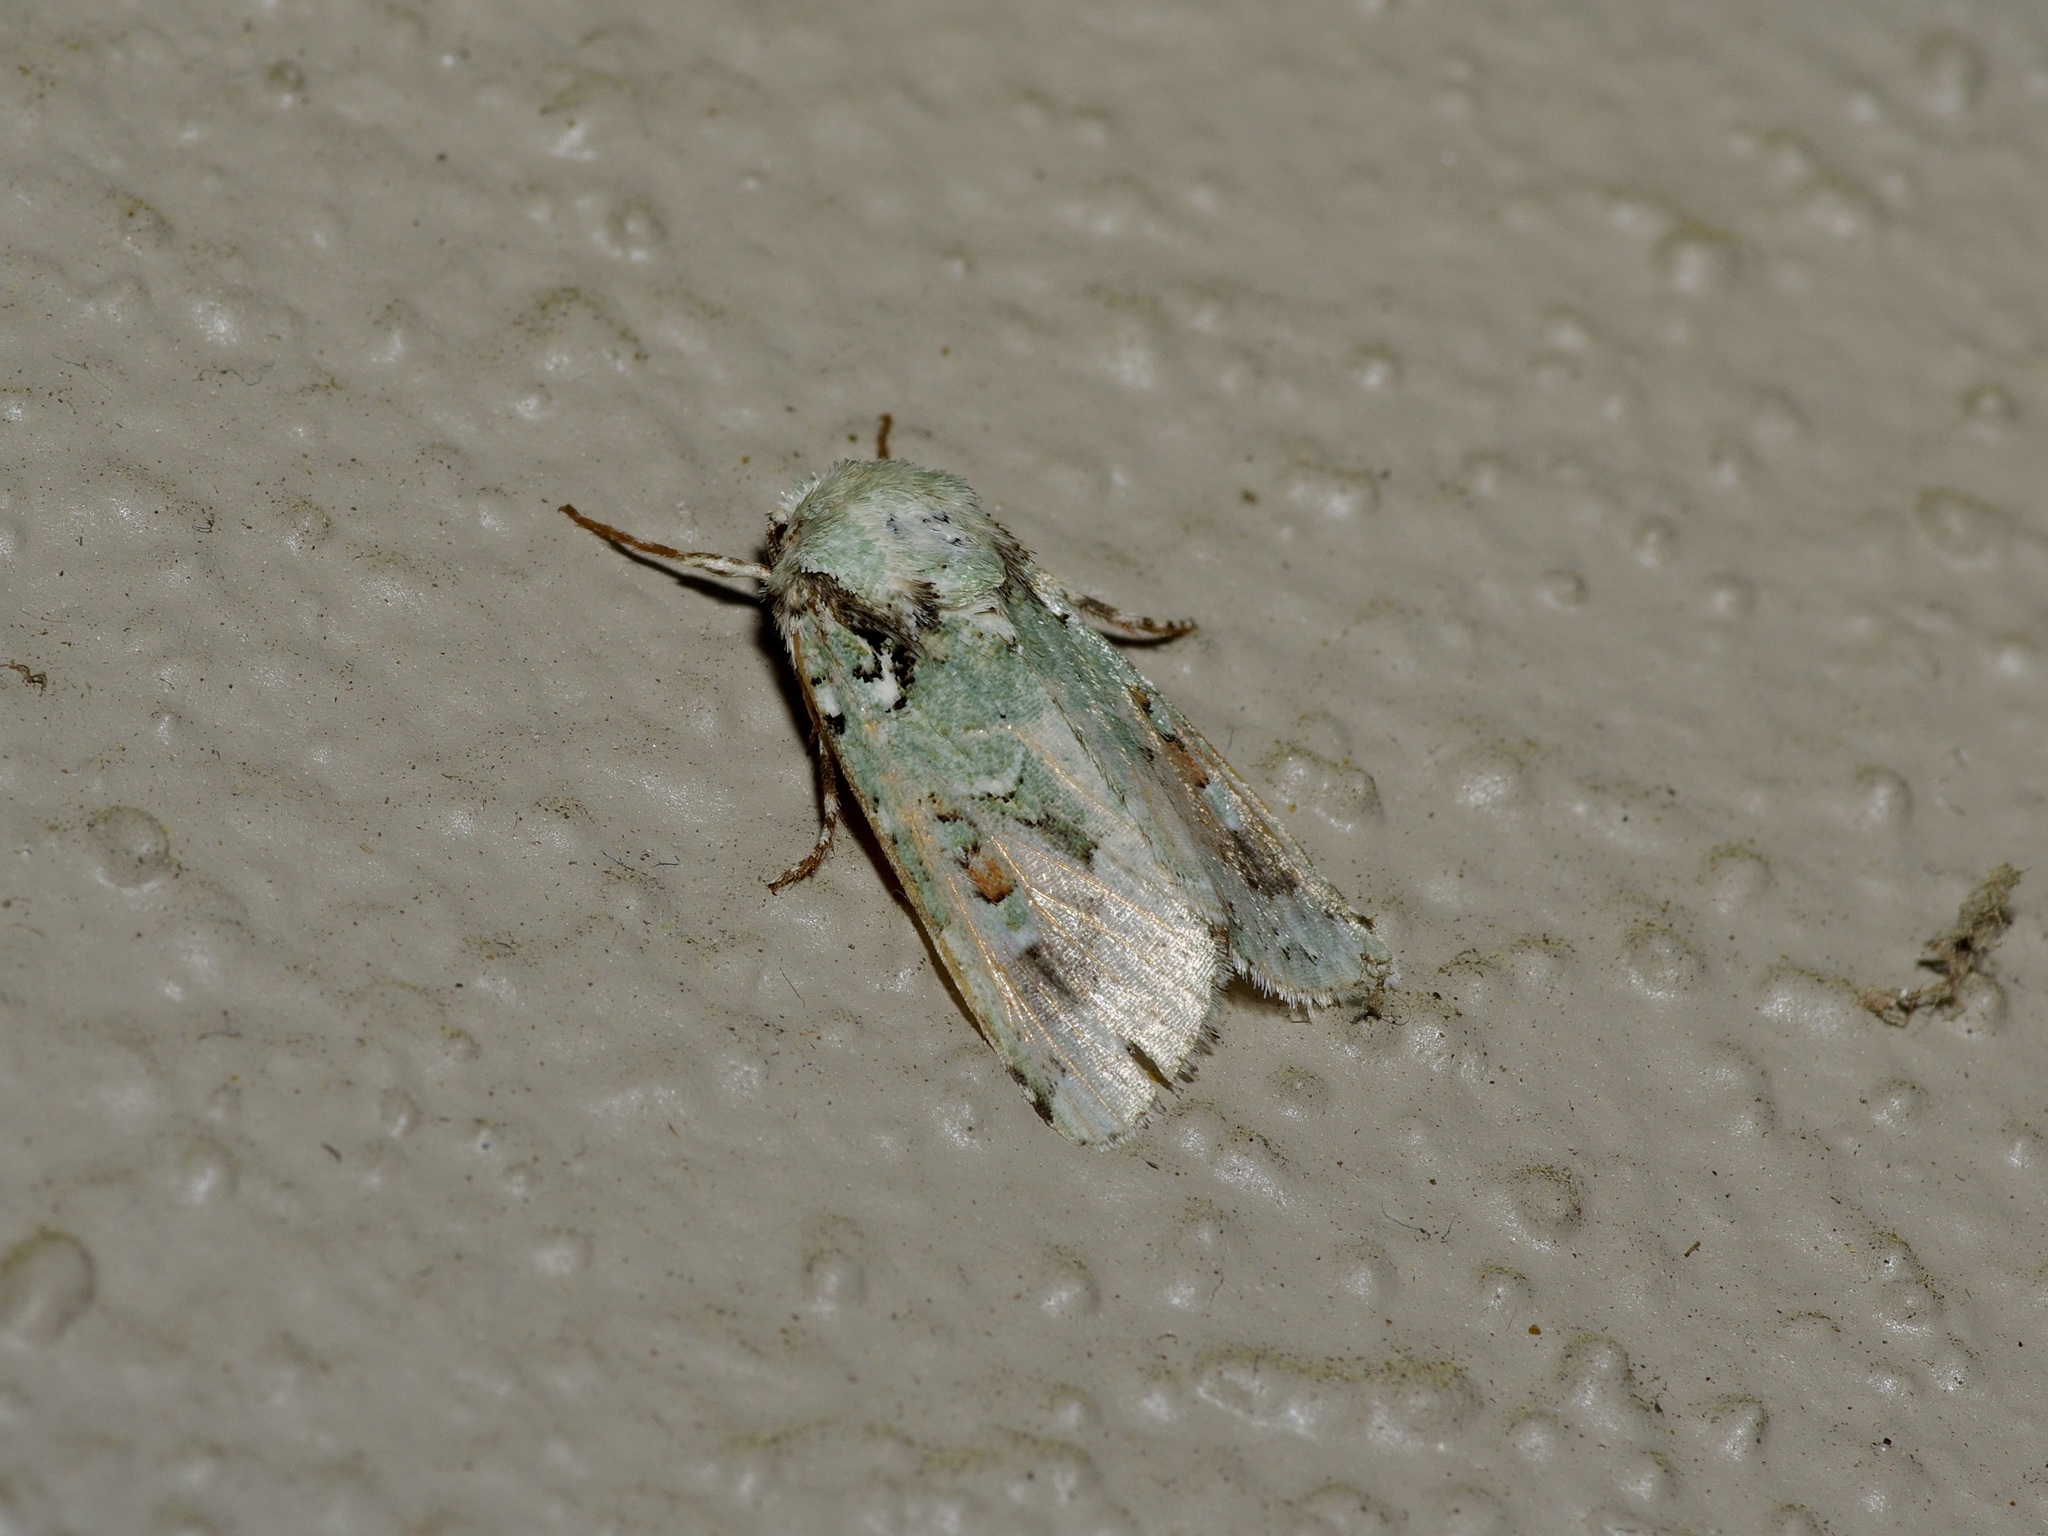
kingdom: Animalia
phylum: Arthropoda
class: Insecta
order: Lepidoptera
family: Noctuidae
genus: Lacinipolia
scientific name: Lacinipolia laudabilis
